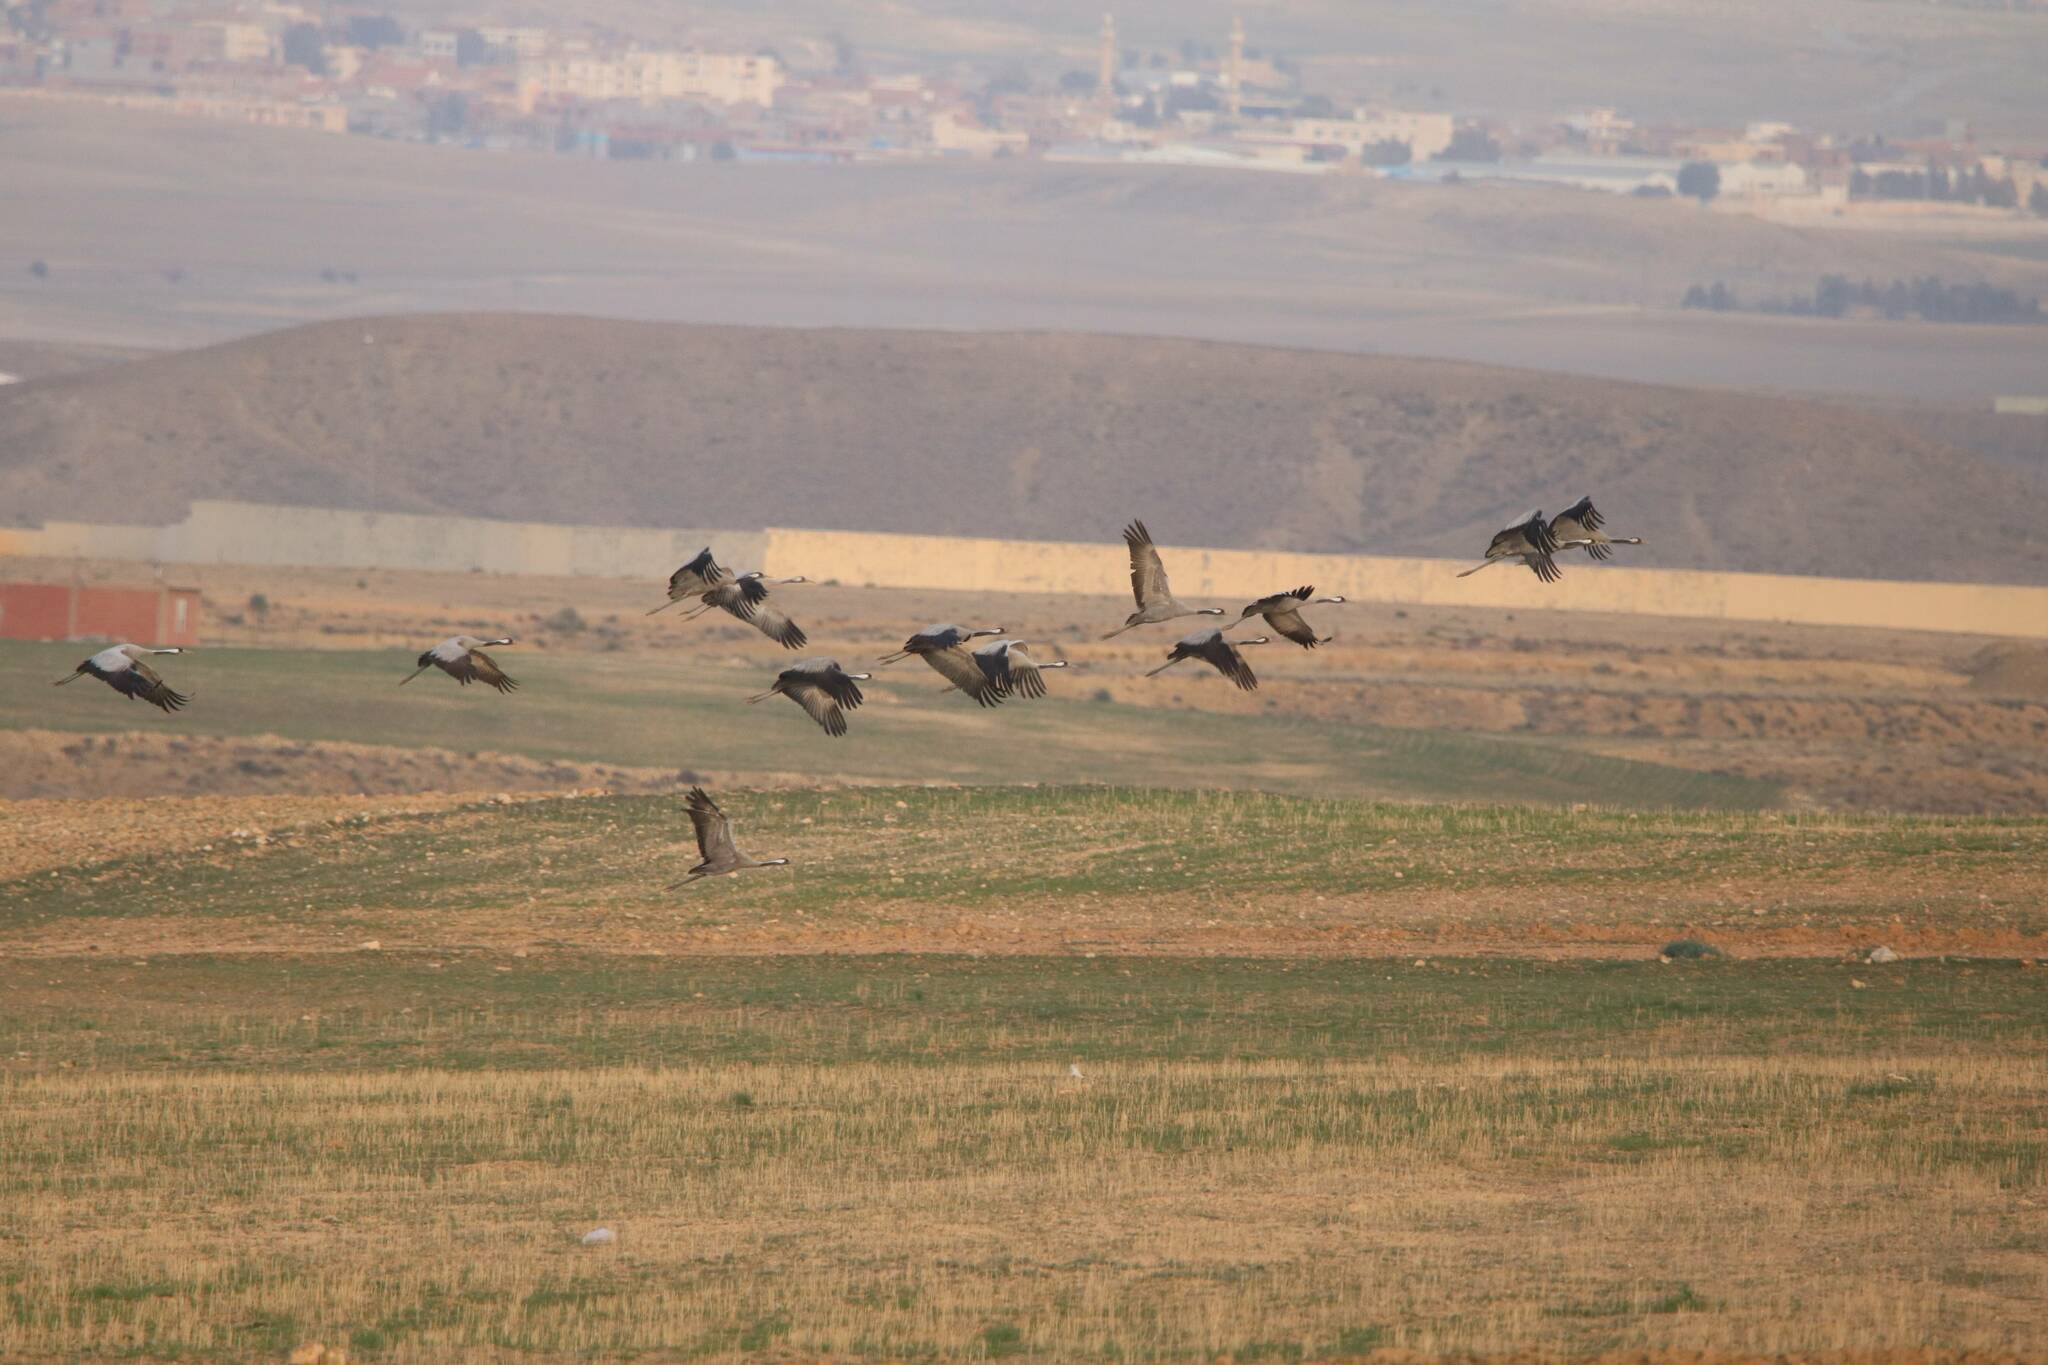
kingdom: Animalia
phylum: Chordata
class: Aves
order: Gruiformes
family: Gruidae
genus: Grus
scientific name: Grus grus
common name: Common crane
